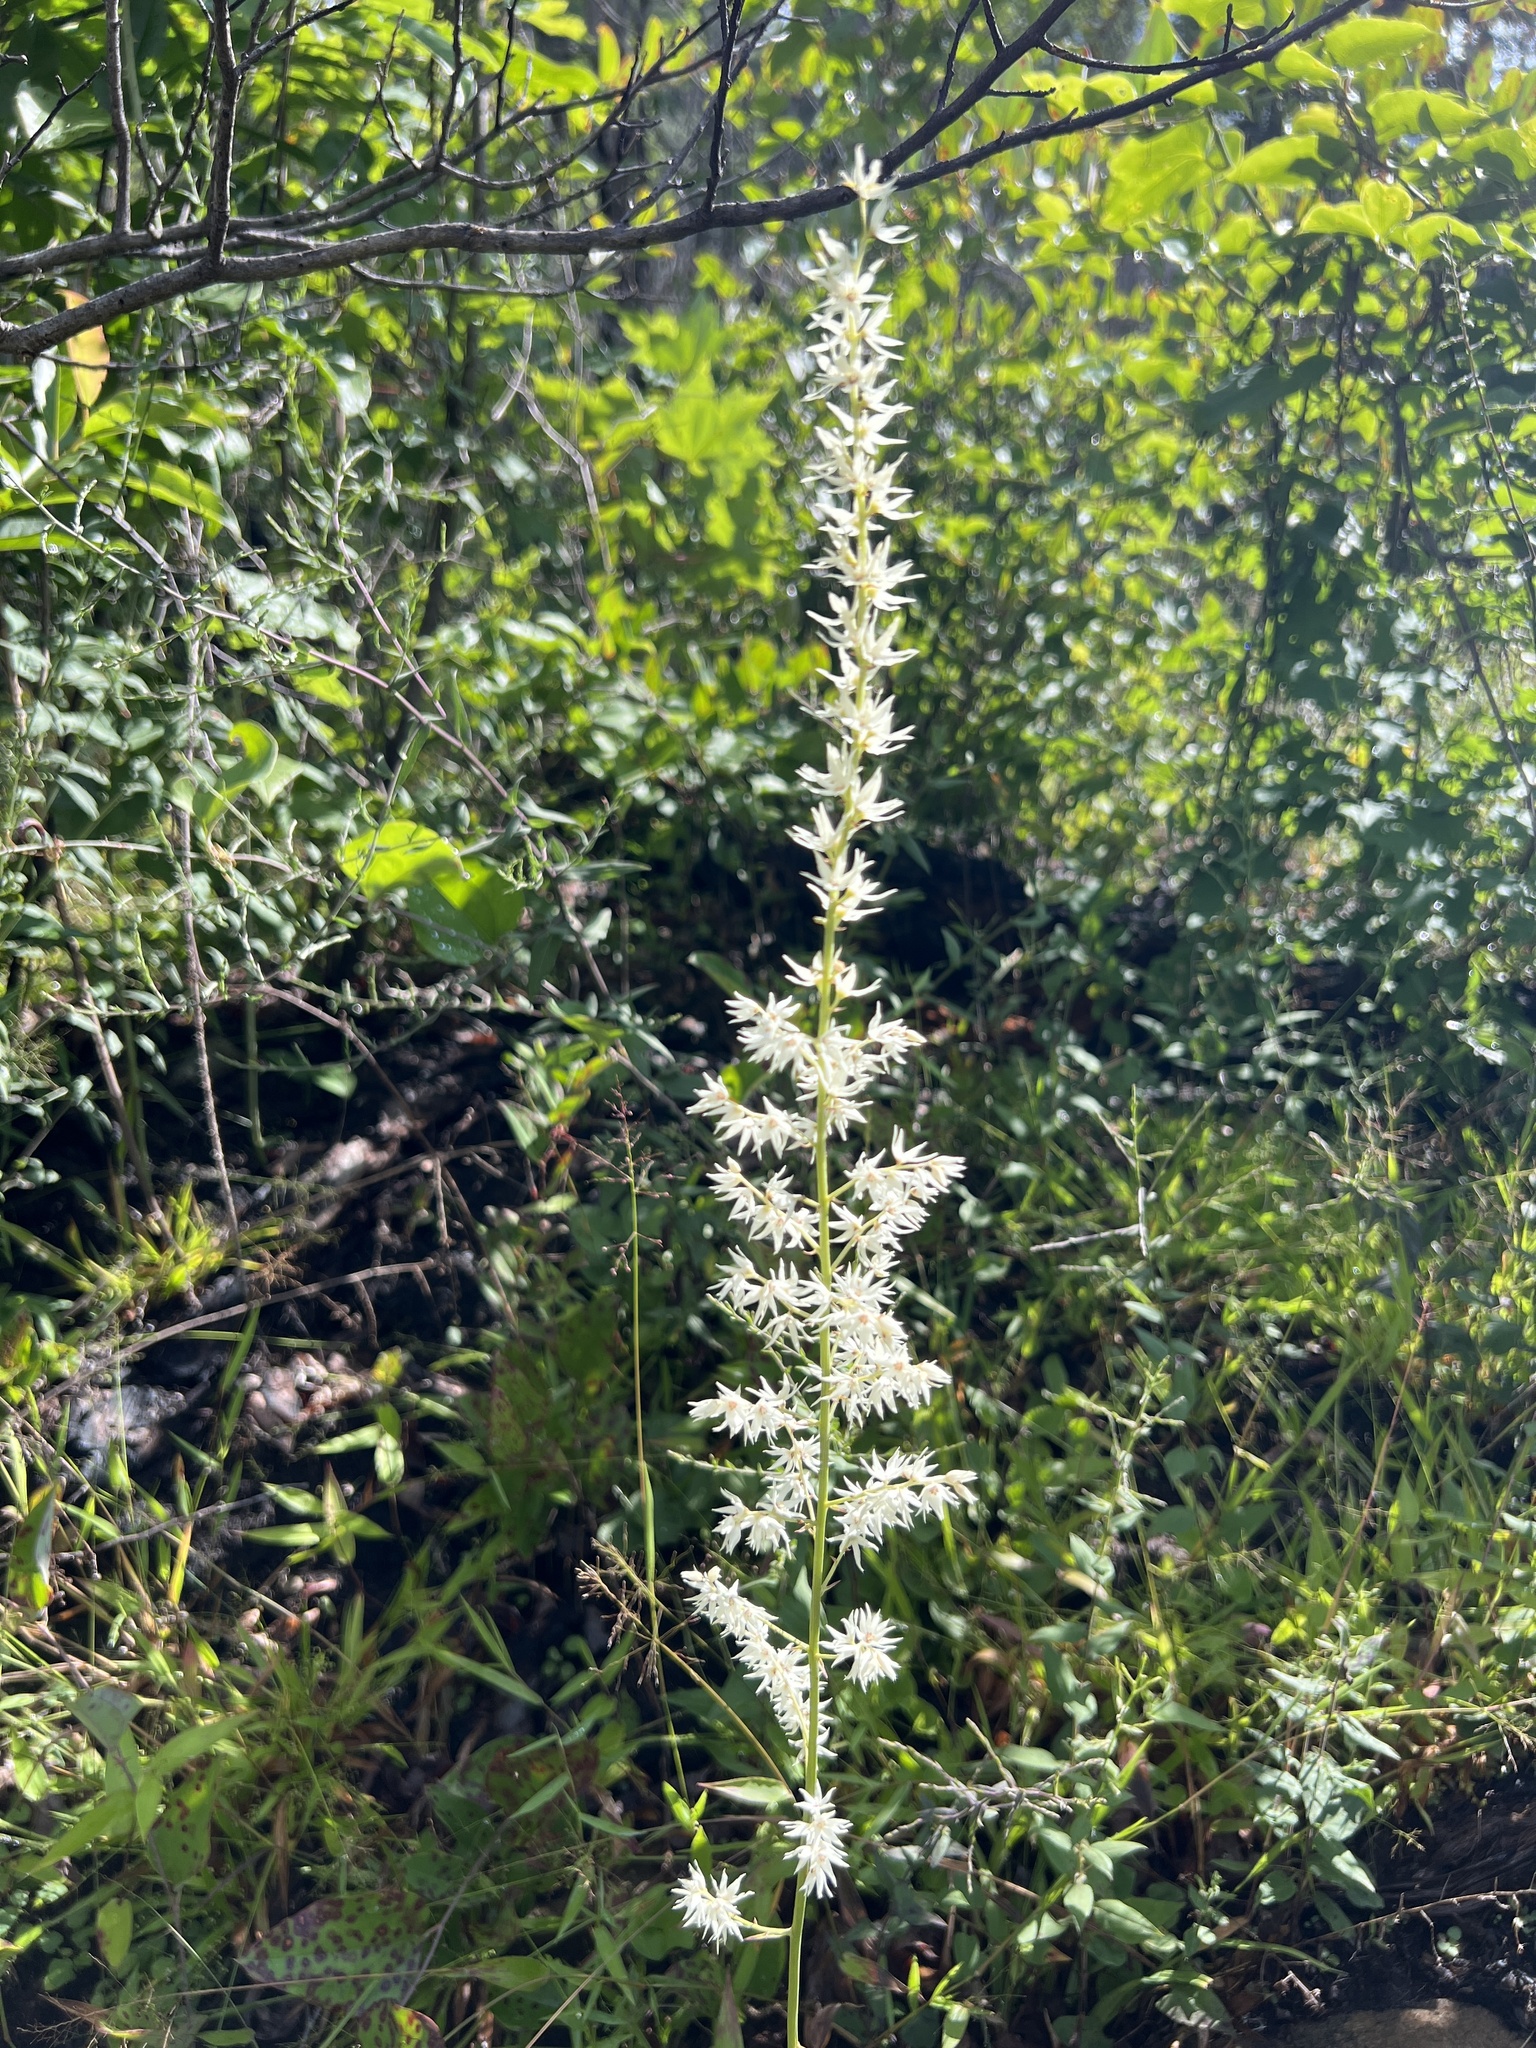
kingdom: Plantae
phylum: Tracheophyta
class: Liliopsida
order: Liliales
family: Melanthiaceae
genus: Stenanthium
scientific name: Stenanthium gramineum
